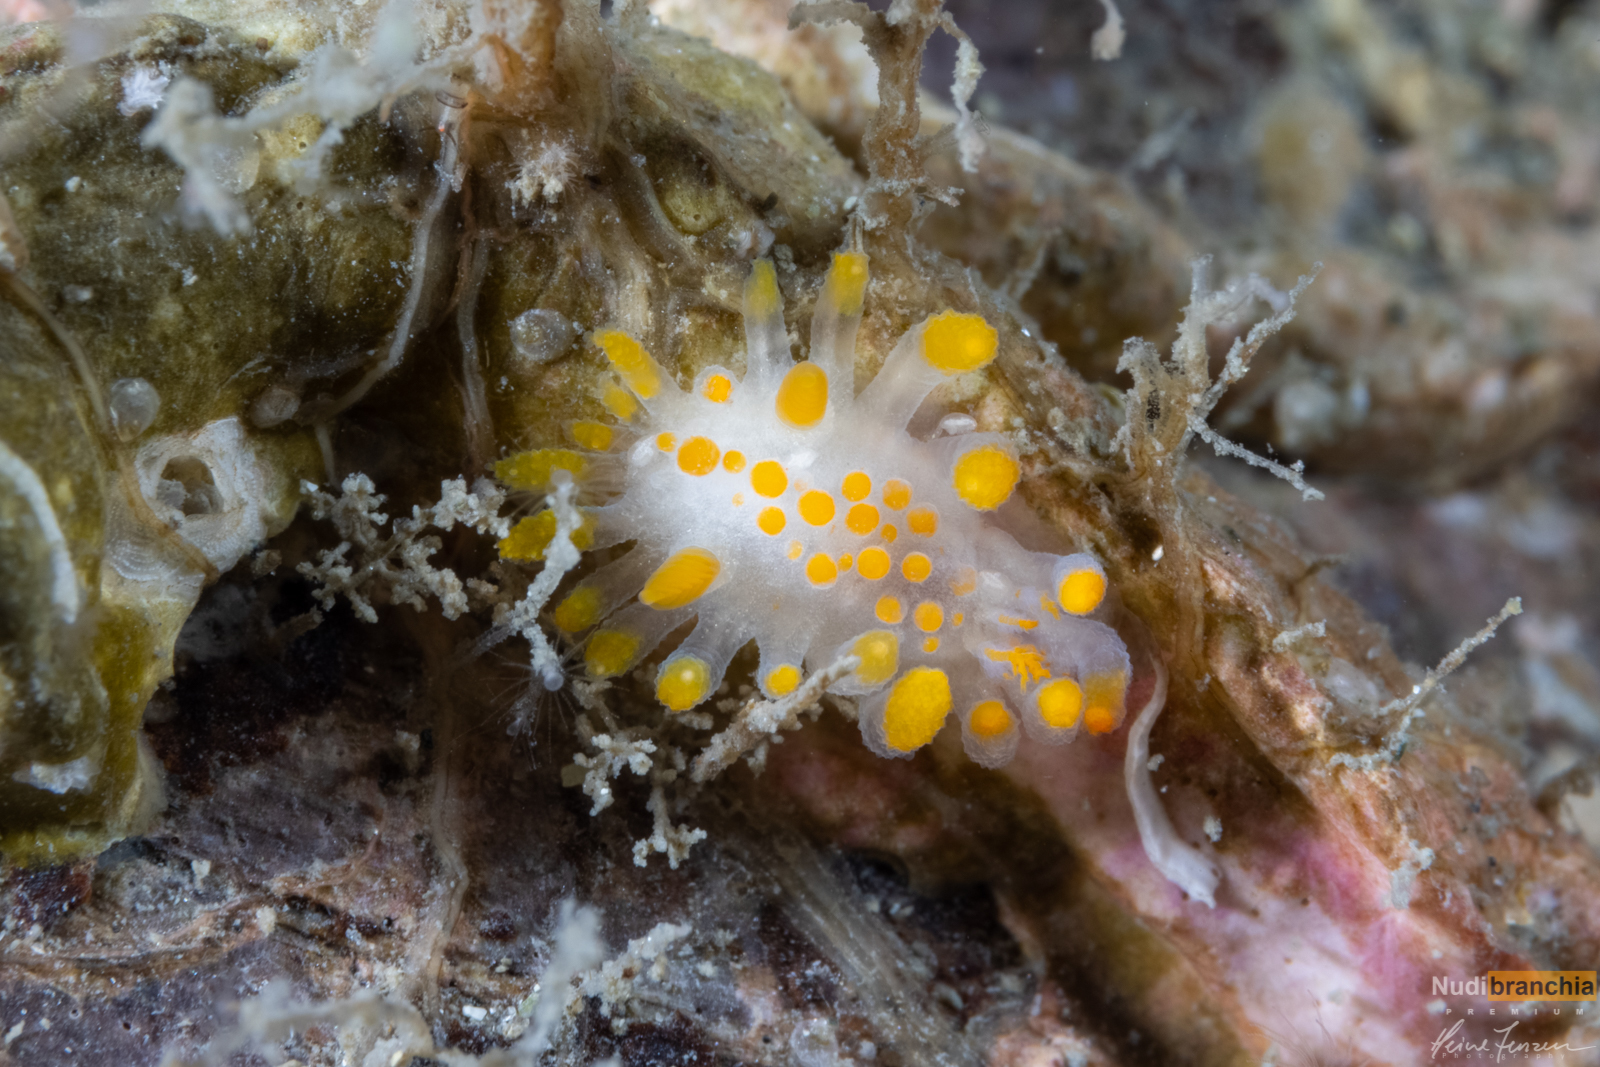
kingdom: Animalia
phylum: Mollusca
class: Gastropoda
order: Nudibranchia
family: Polyceridae
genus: Limacia
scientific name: Limacia clavigera
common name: Orange-clubbed sea slug
